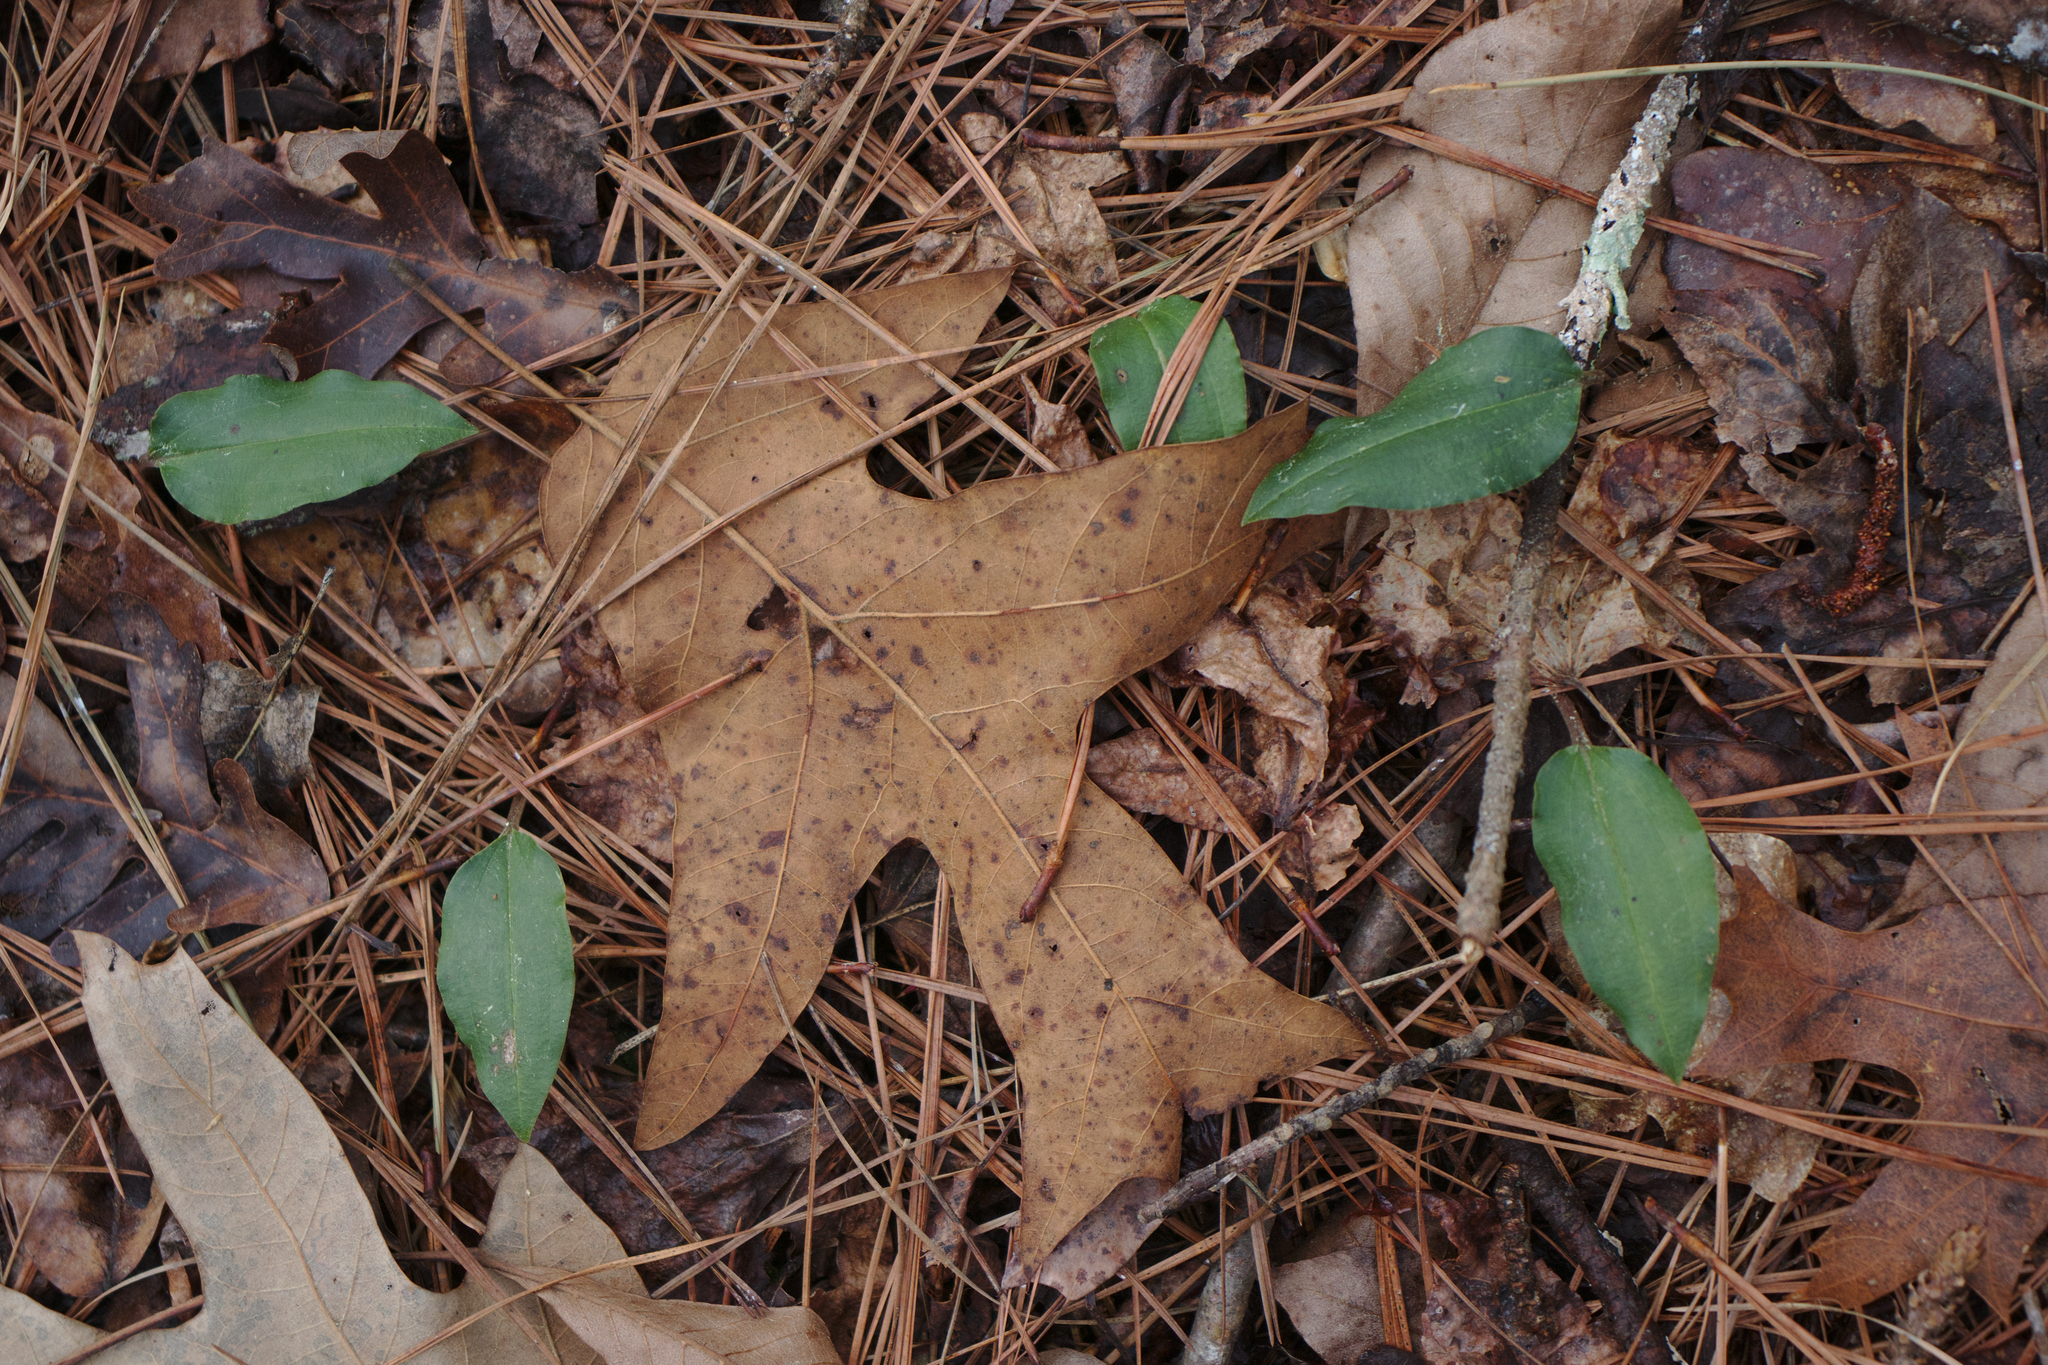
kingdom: Plantae
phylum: Tracheophyta
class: Liliopsida
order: Asparagales
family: Orchidaceae
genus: Tipularia
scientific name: Tipularia discolor
